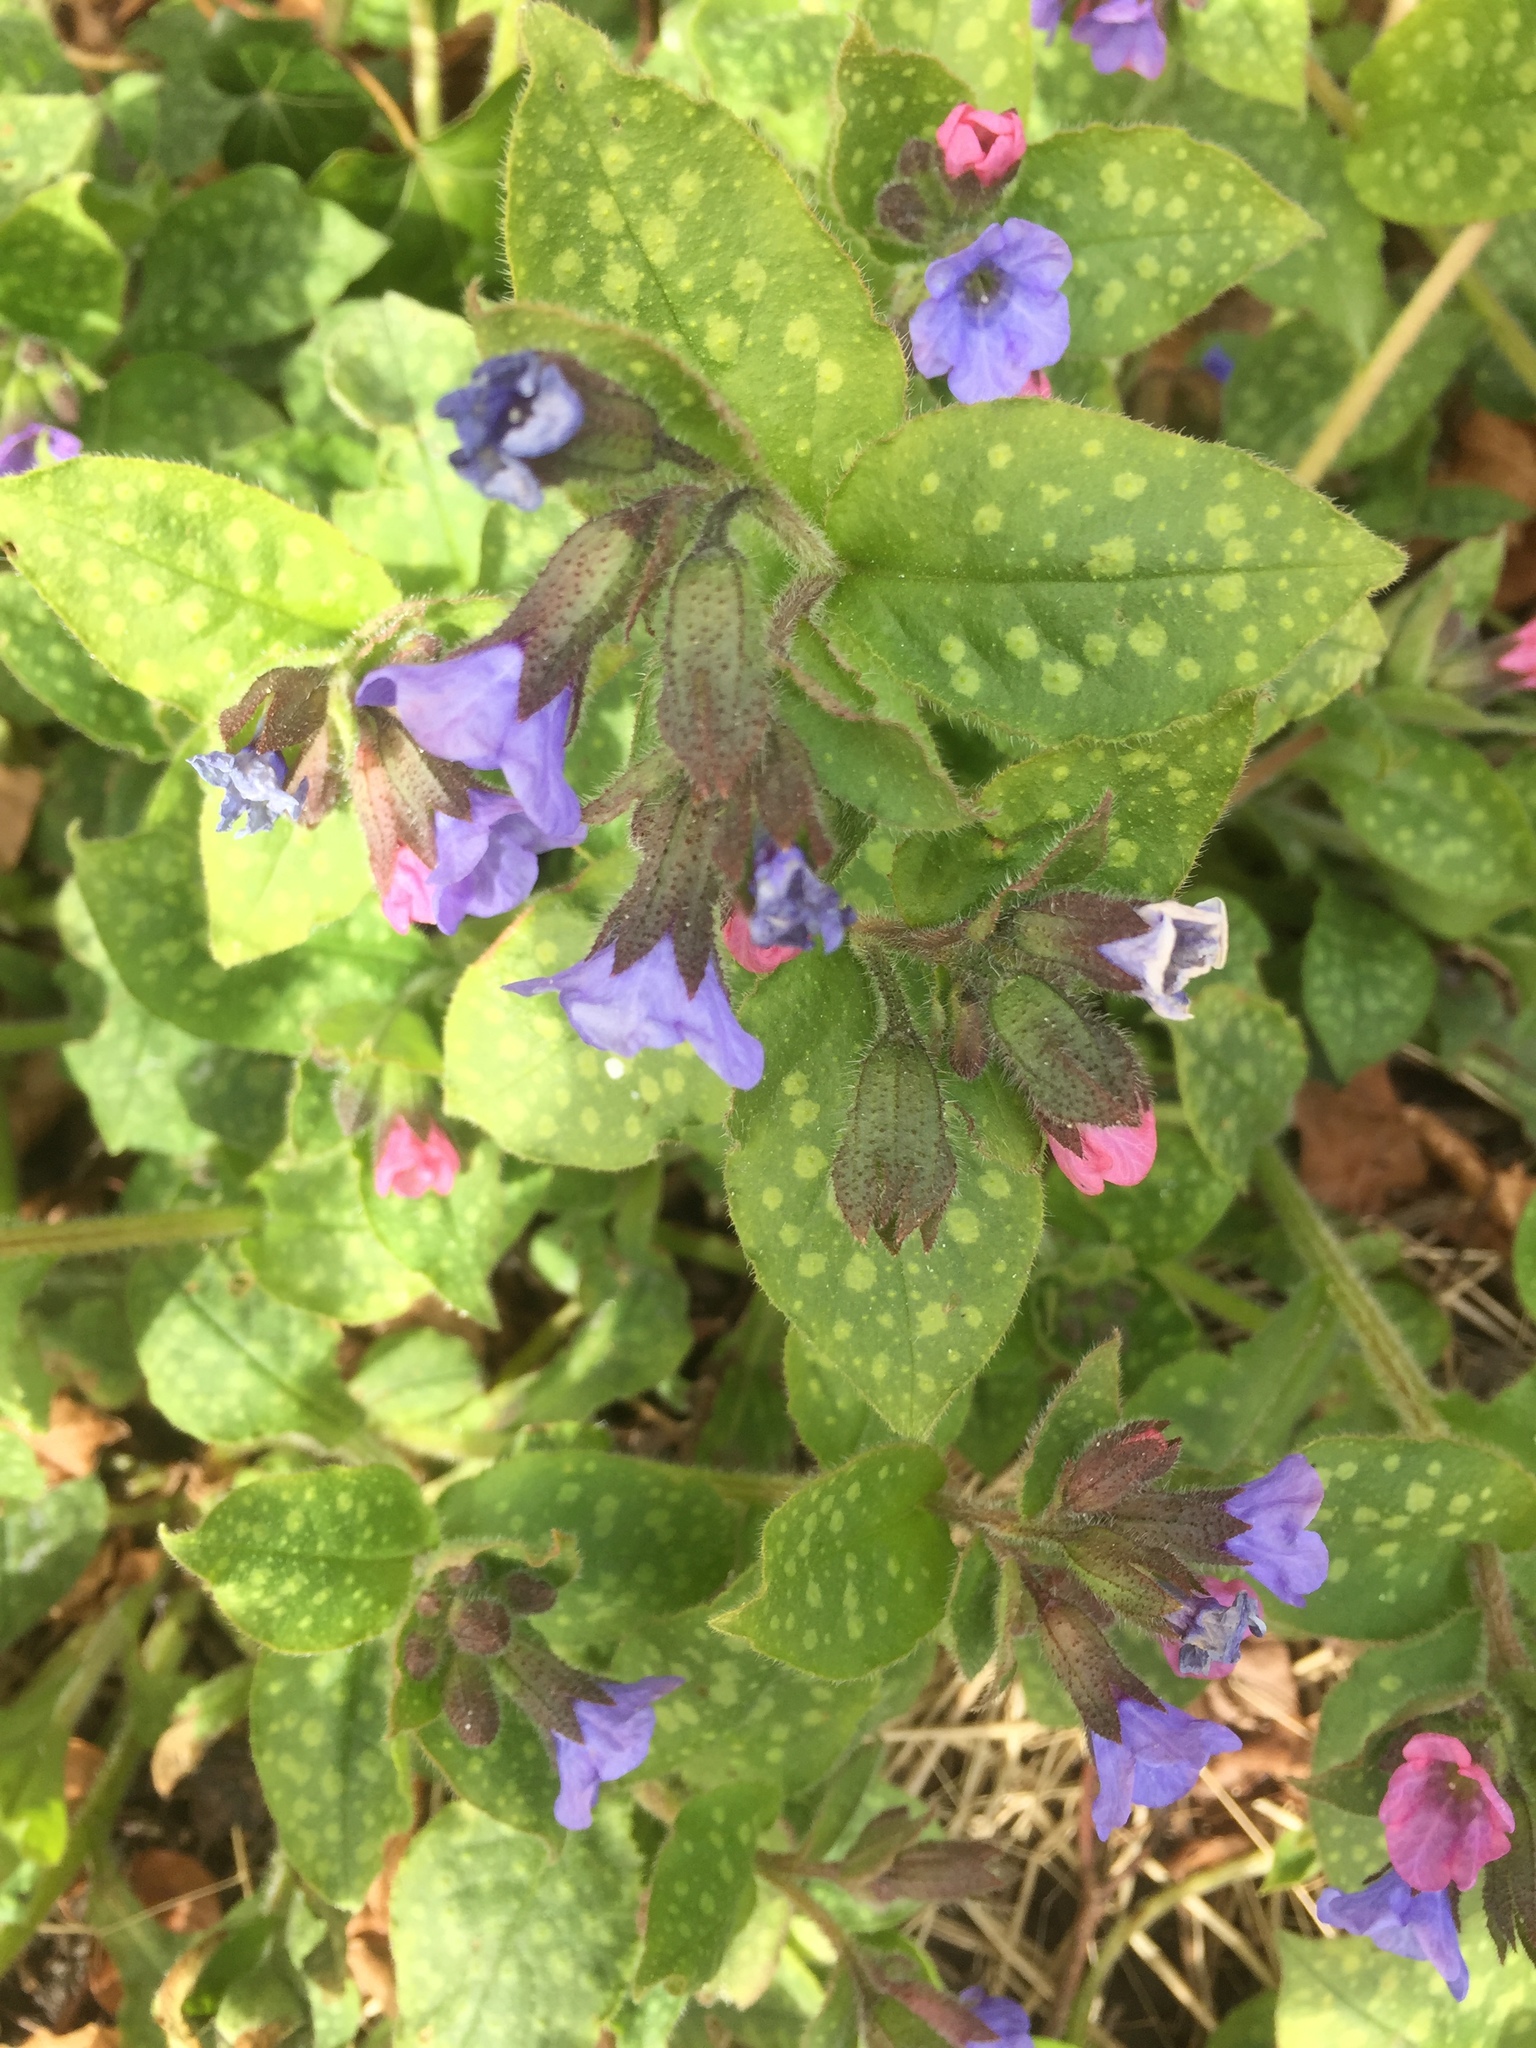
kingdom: Plantae
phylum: Tracheophyta
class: Magnoliopsida
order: Boraginales
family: Boraginaceae
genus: Pulmonaria
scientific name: Pulmonaria officinalis
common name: Lungwort
